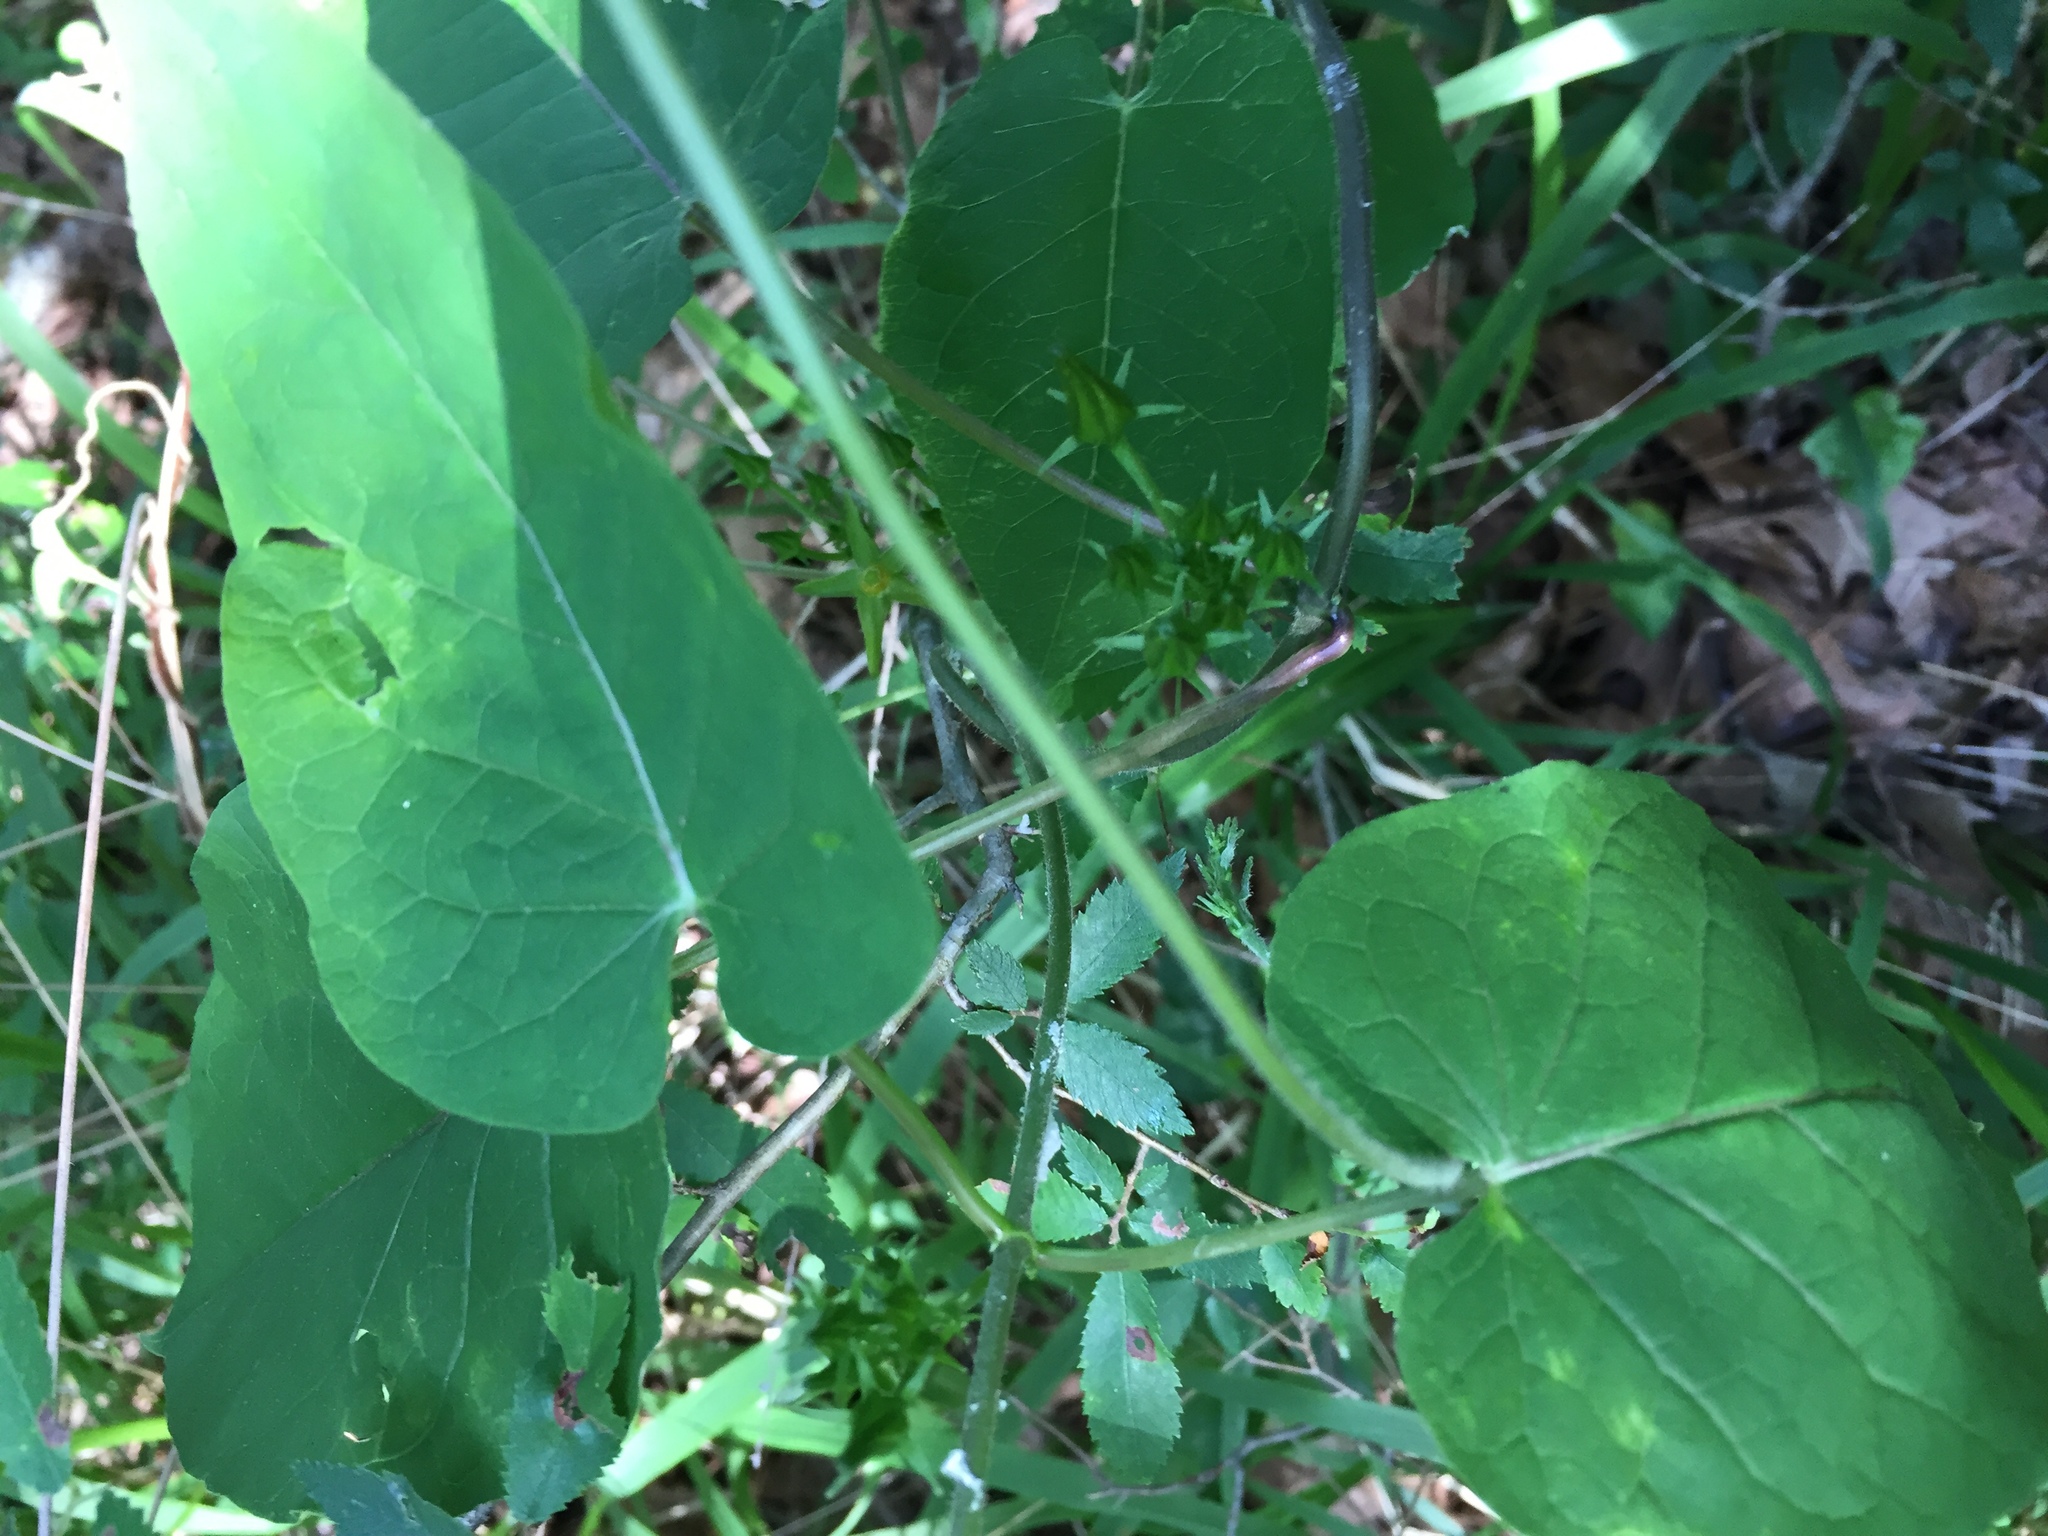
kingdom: Plantae
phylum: Tracheophyta
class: Magnoliopsida
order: Gentianales
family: Apocynaceae
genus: Gonolobus
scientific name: Gonolobus suberosus
